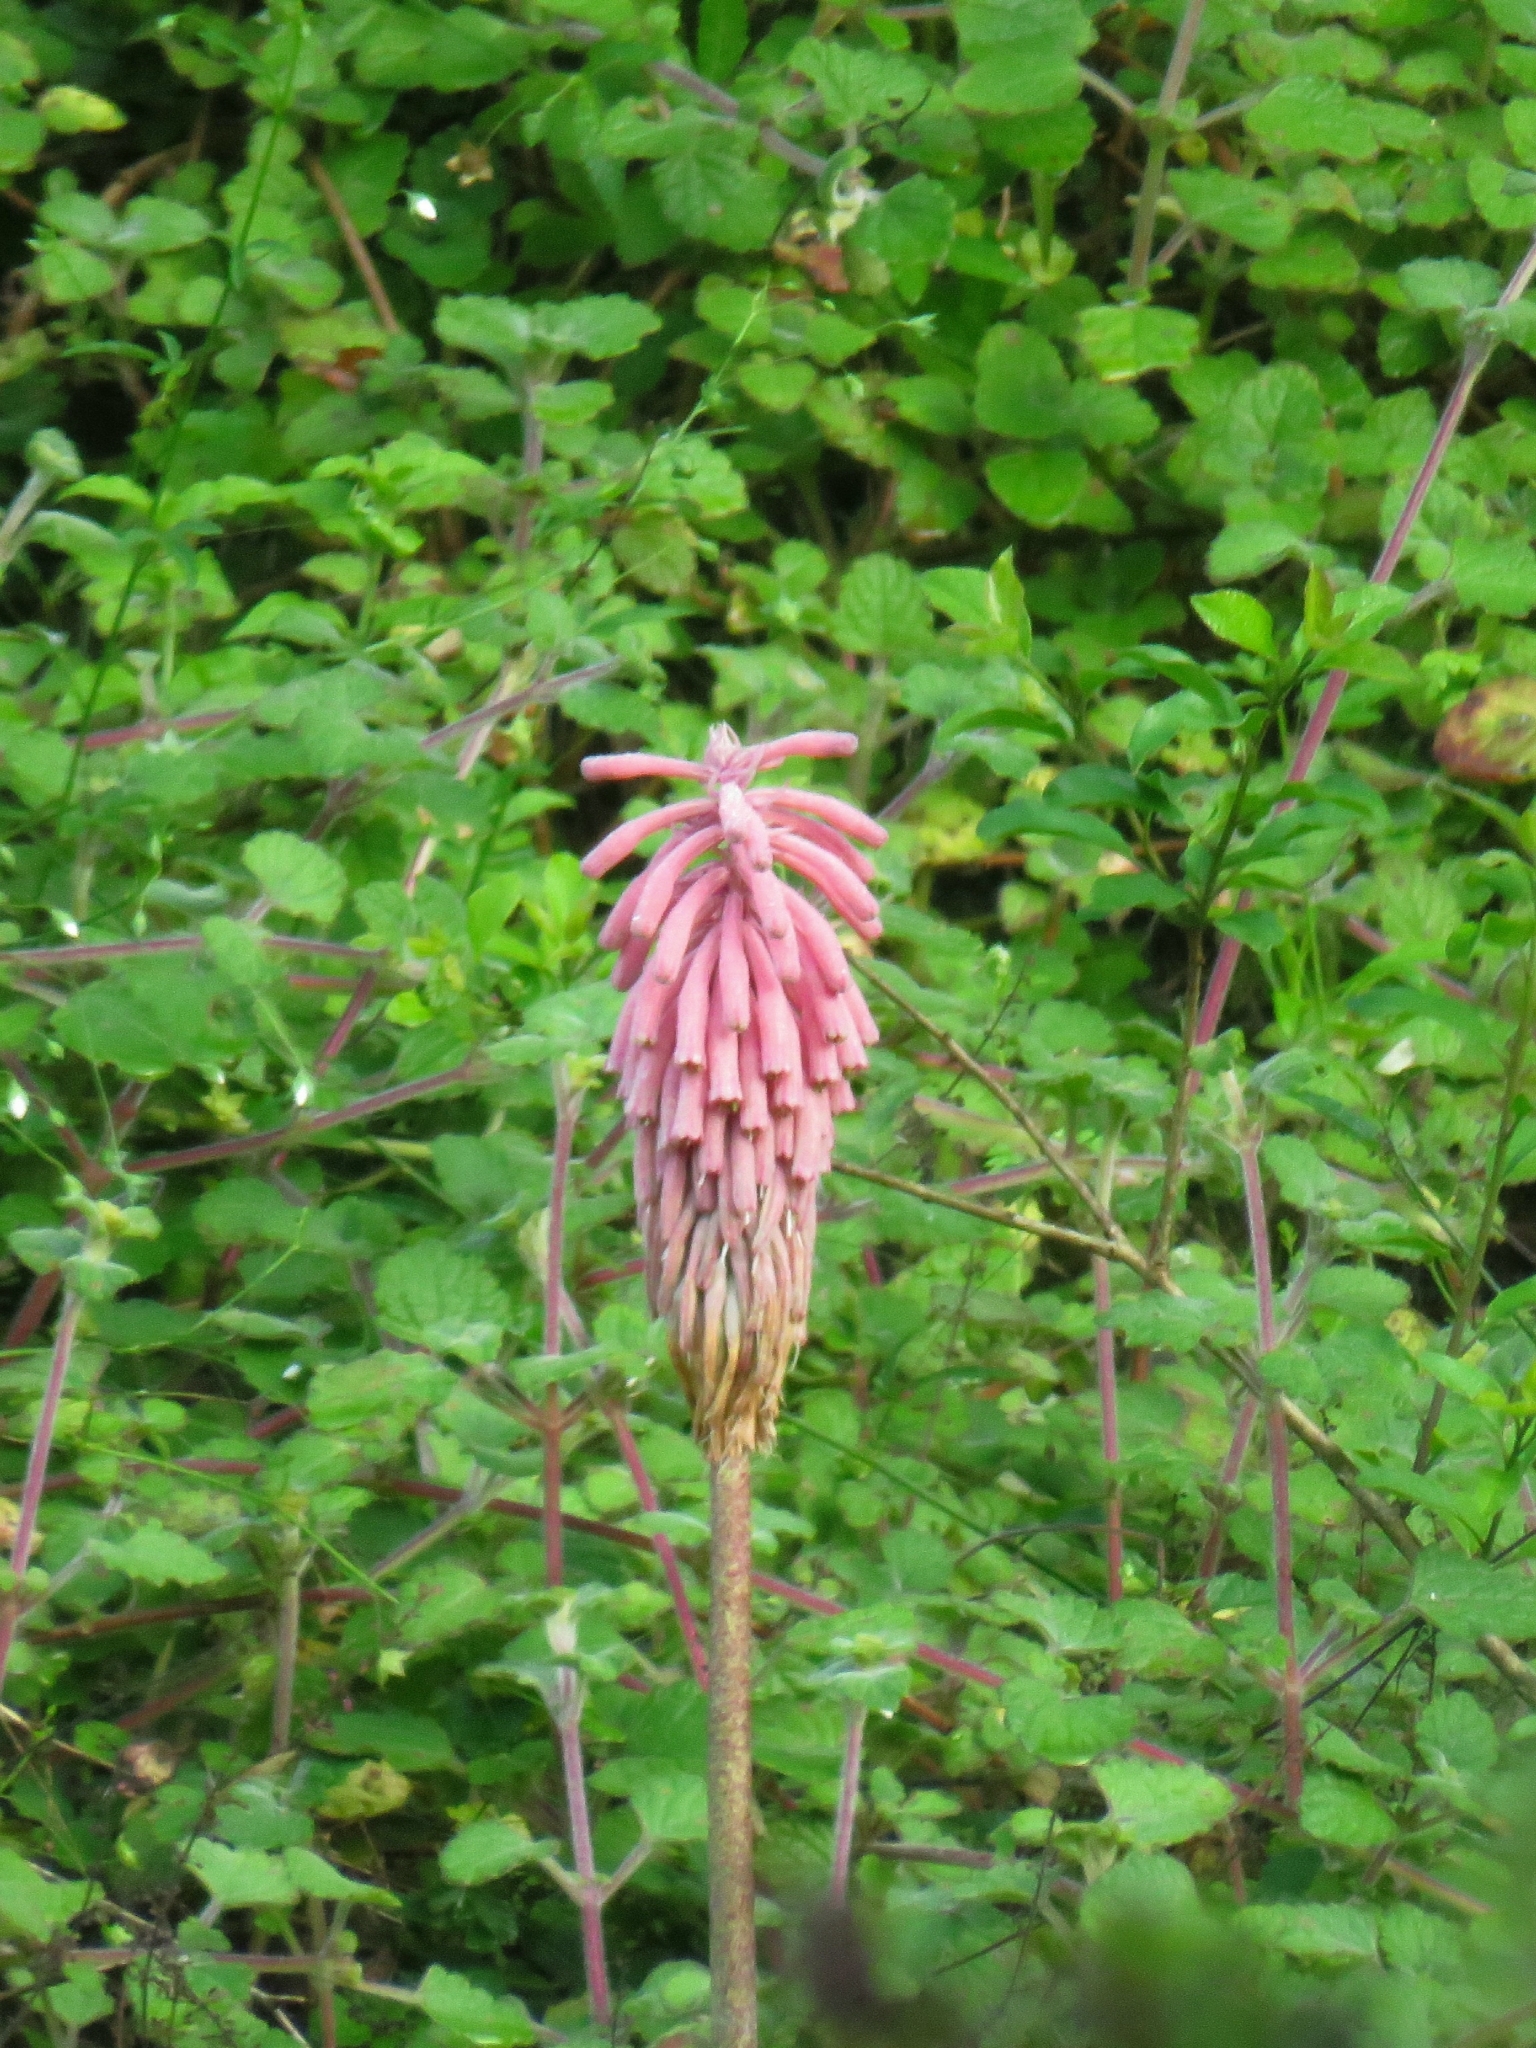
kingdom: Plantae
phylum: Tracheophyta
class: Liliopsida
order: Asparagales
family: Asparagaceae
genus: Veltheimia
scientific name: Veltheimia bracteata
